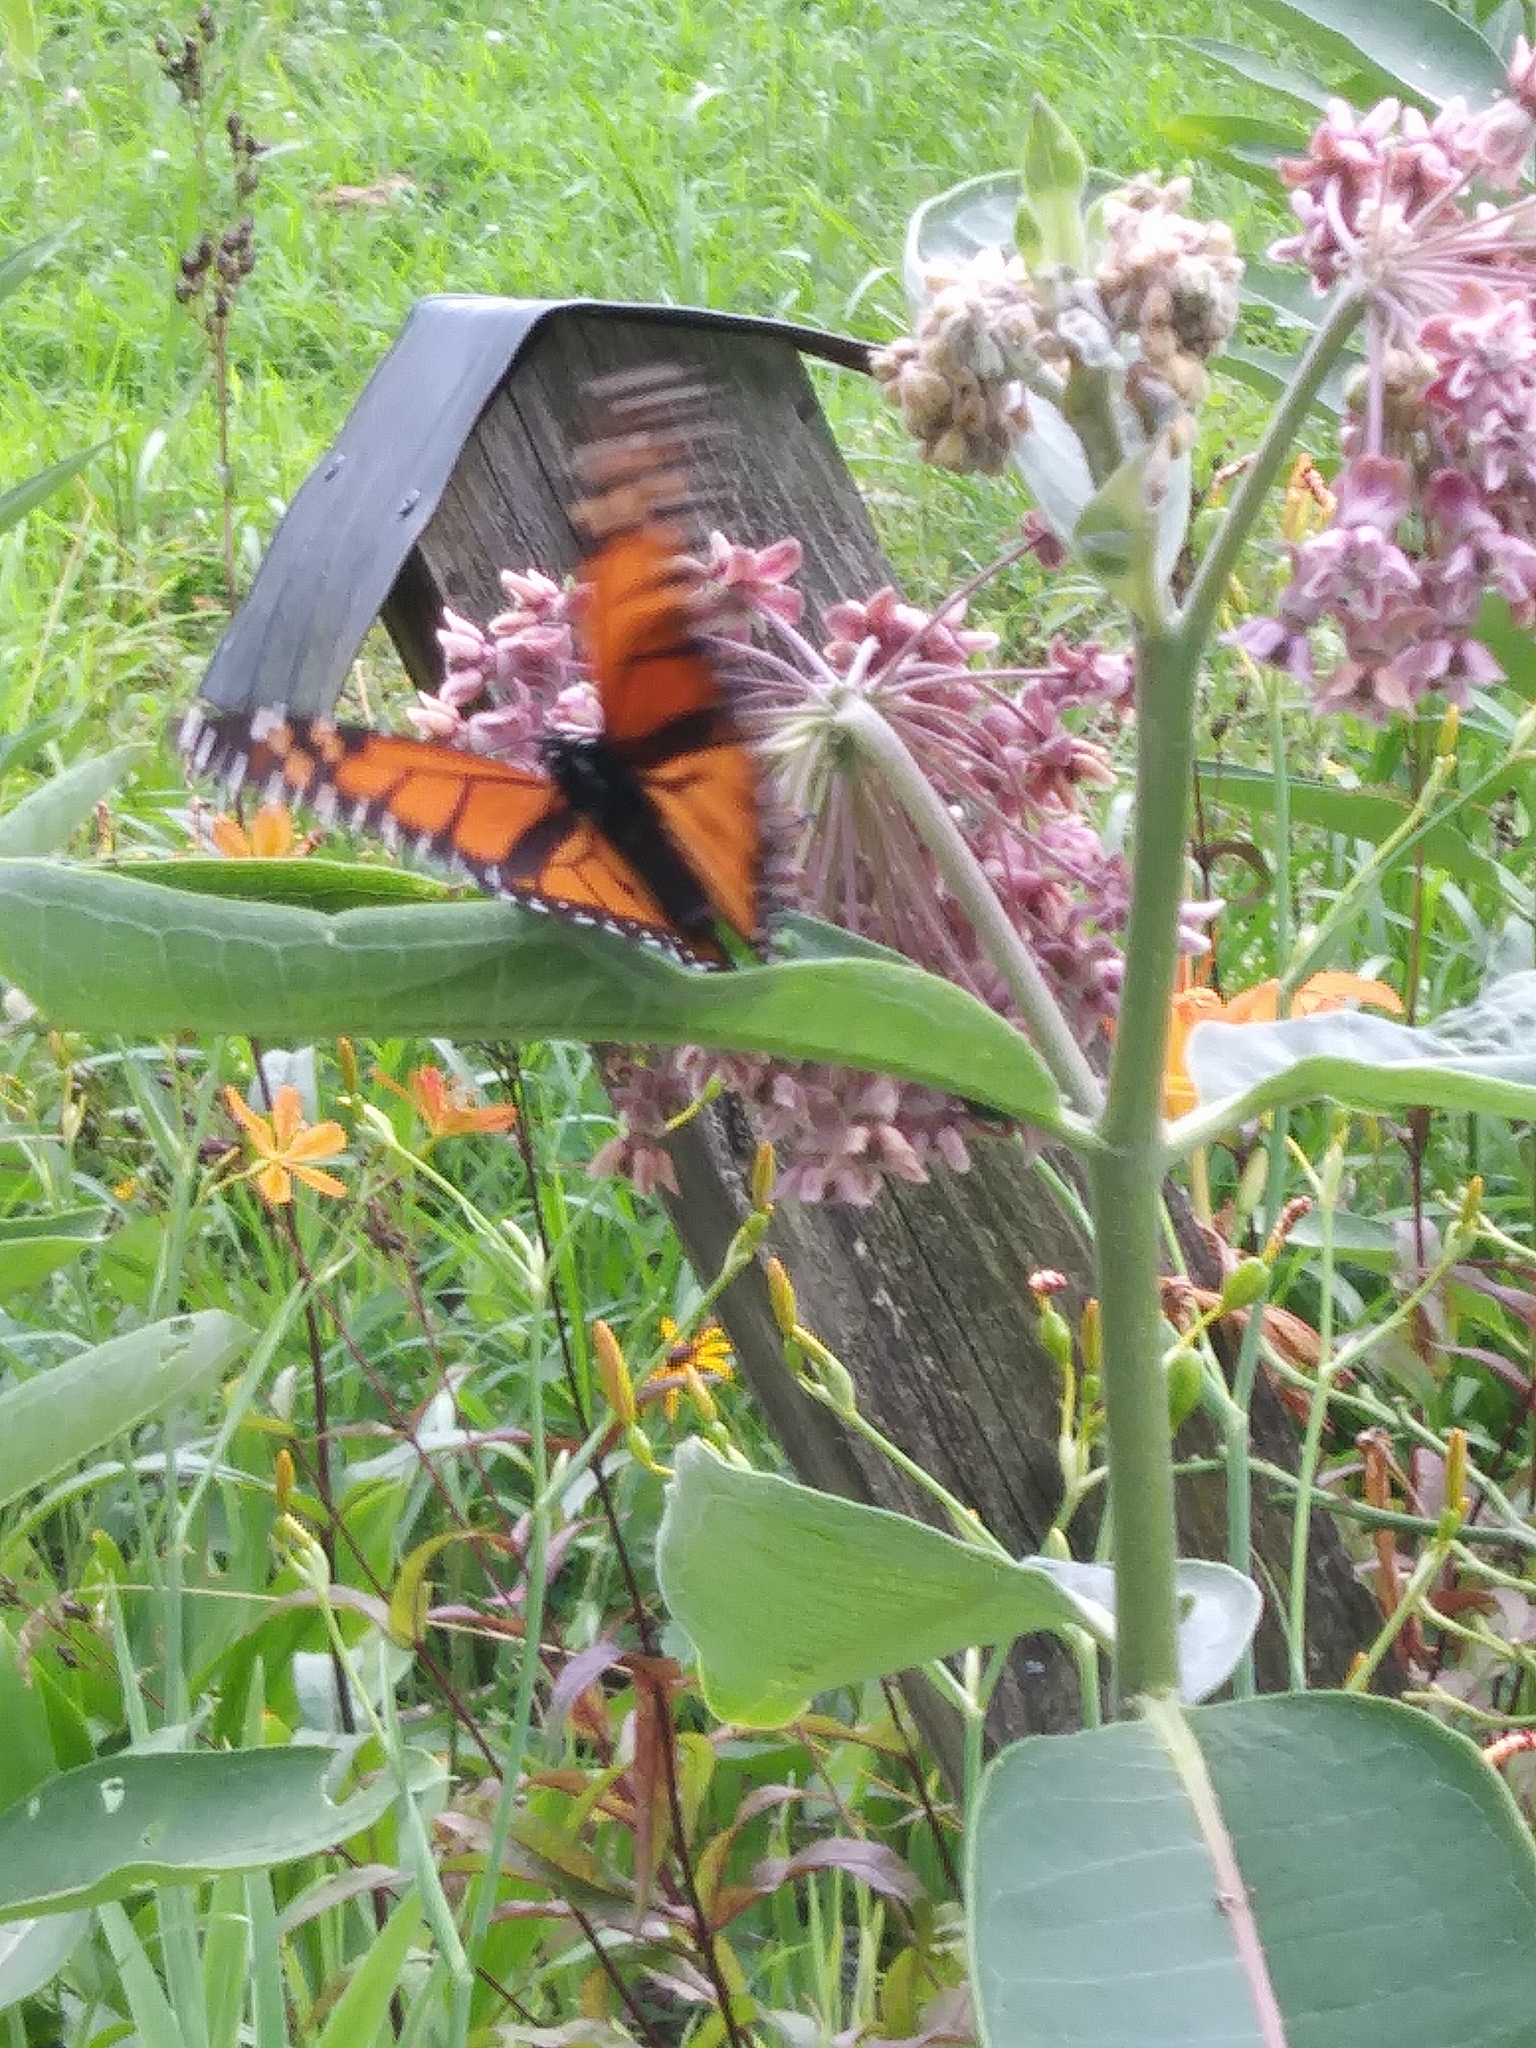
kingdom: Animalia
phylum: Arthropoda
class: Insecta
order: Lepidoptera
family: Nymphalidae
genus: Danaus
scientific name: Danaus plexippus
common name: Monarch
